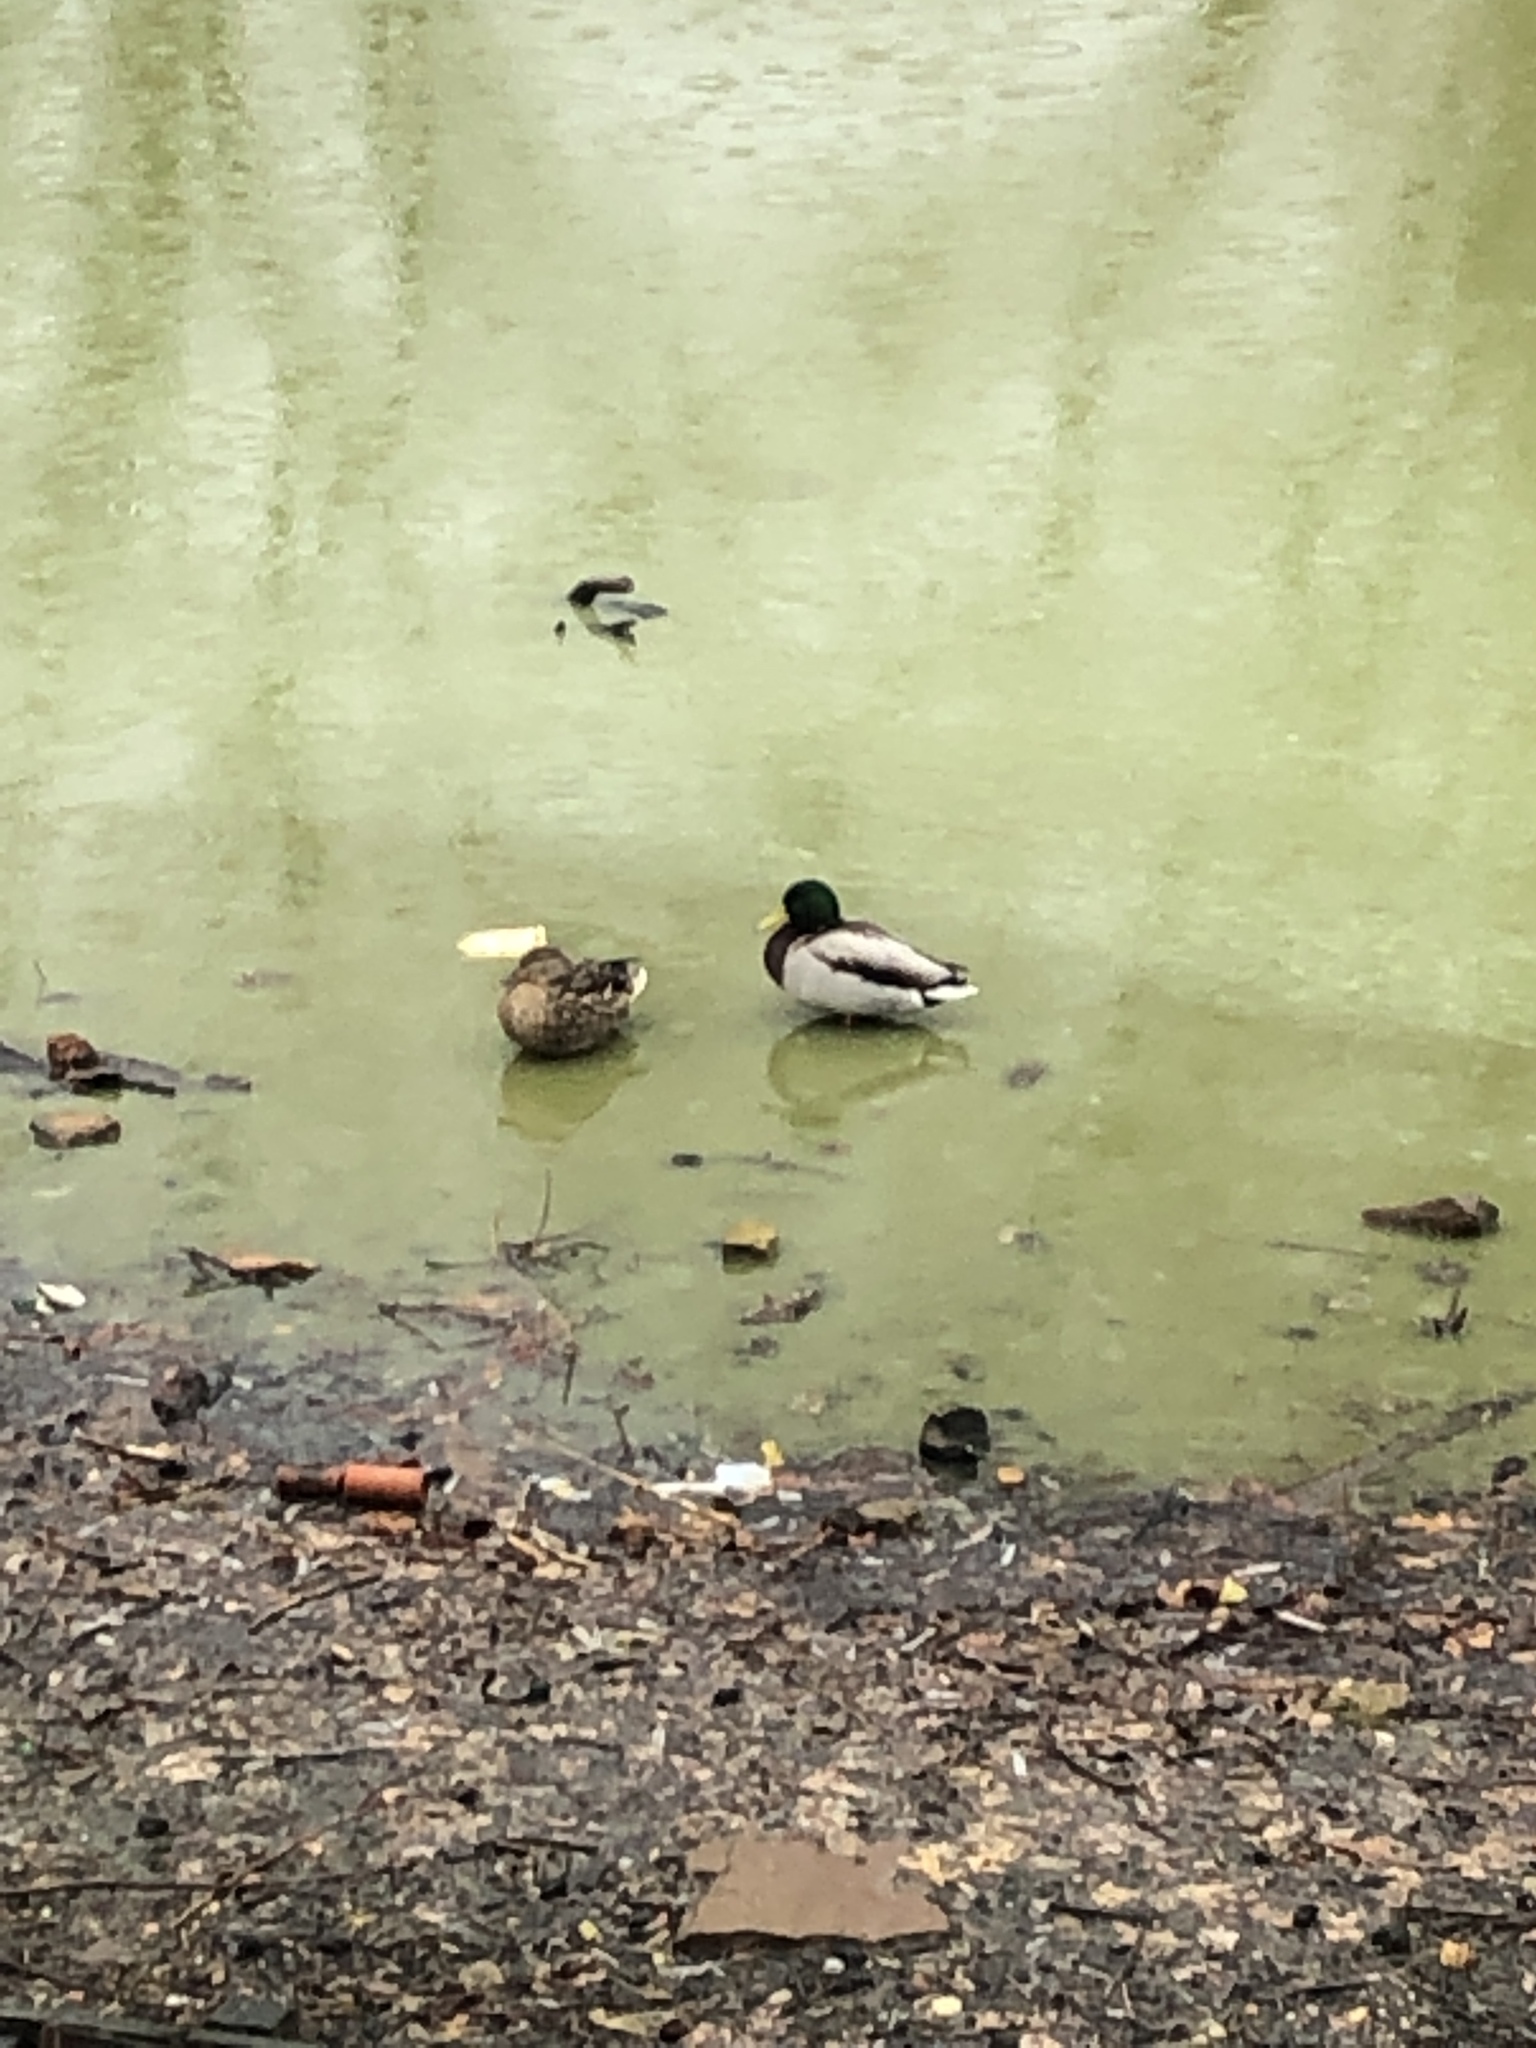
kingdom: Animalia
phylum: Chordata
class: Aves
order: Anseriformes
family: Anatidae
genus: Anas
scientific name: Anas platyrhynchos
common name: Mallard
